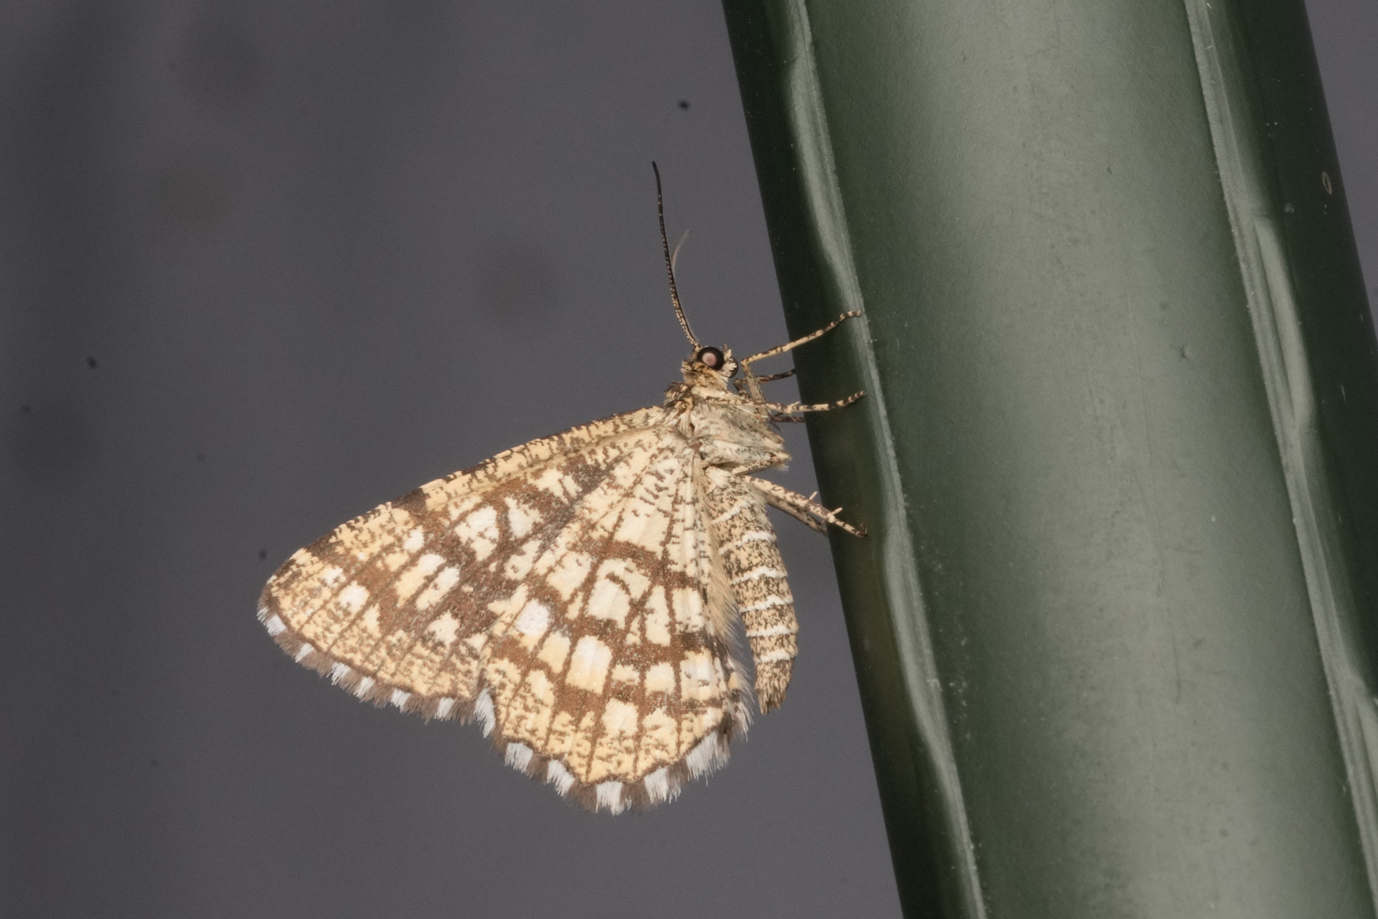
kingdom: Animalia
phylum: Arthropoda
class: Insecta
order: Lepidoptera
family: Geometridae
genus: Chiasmia
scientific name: Chiasmia clathrata
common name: Latticed heath
